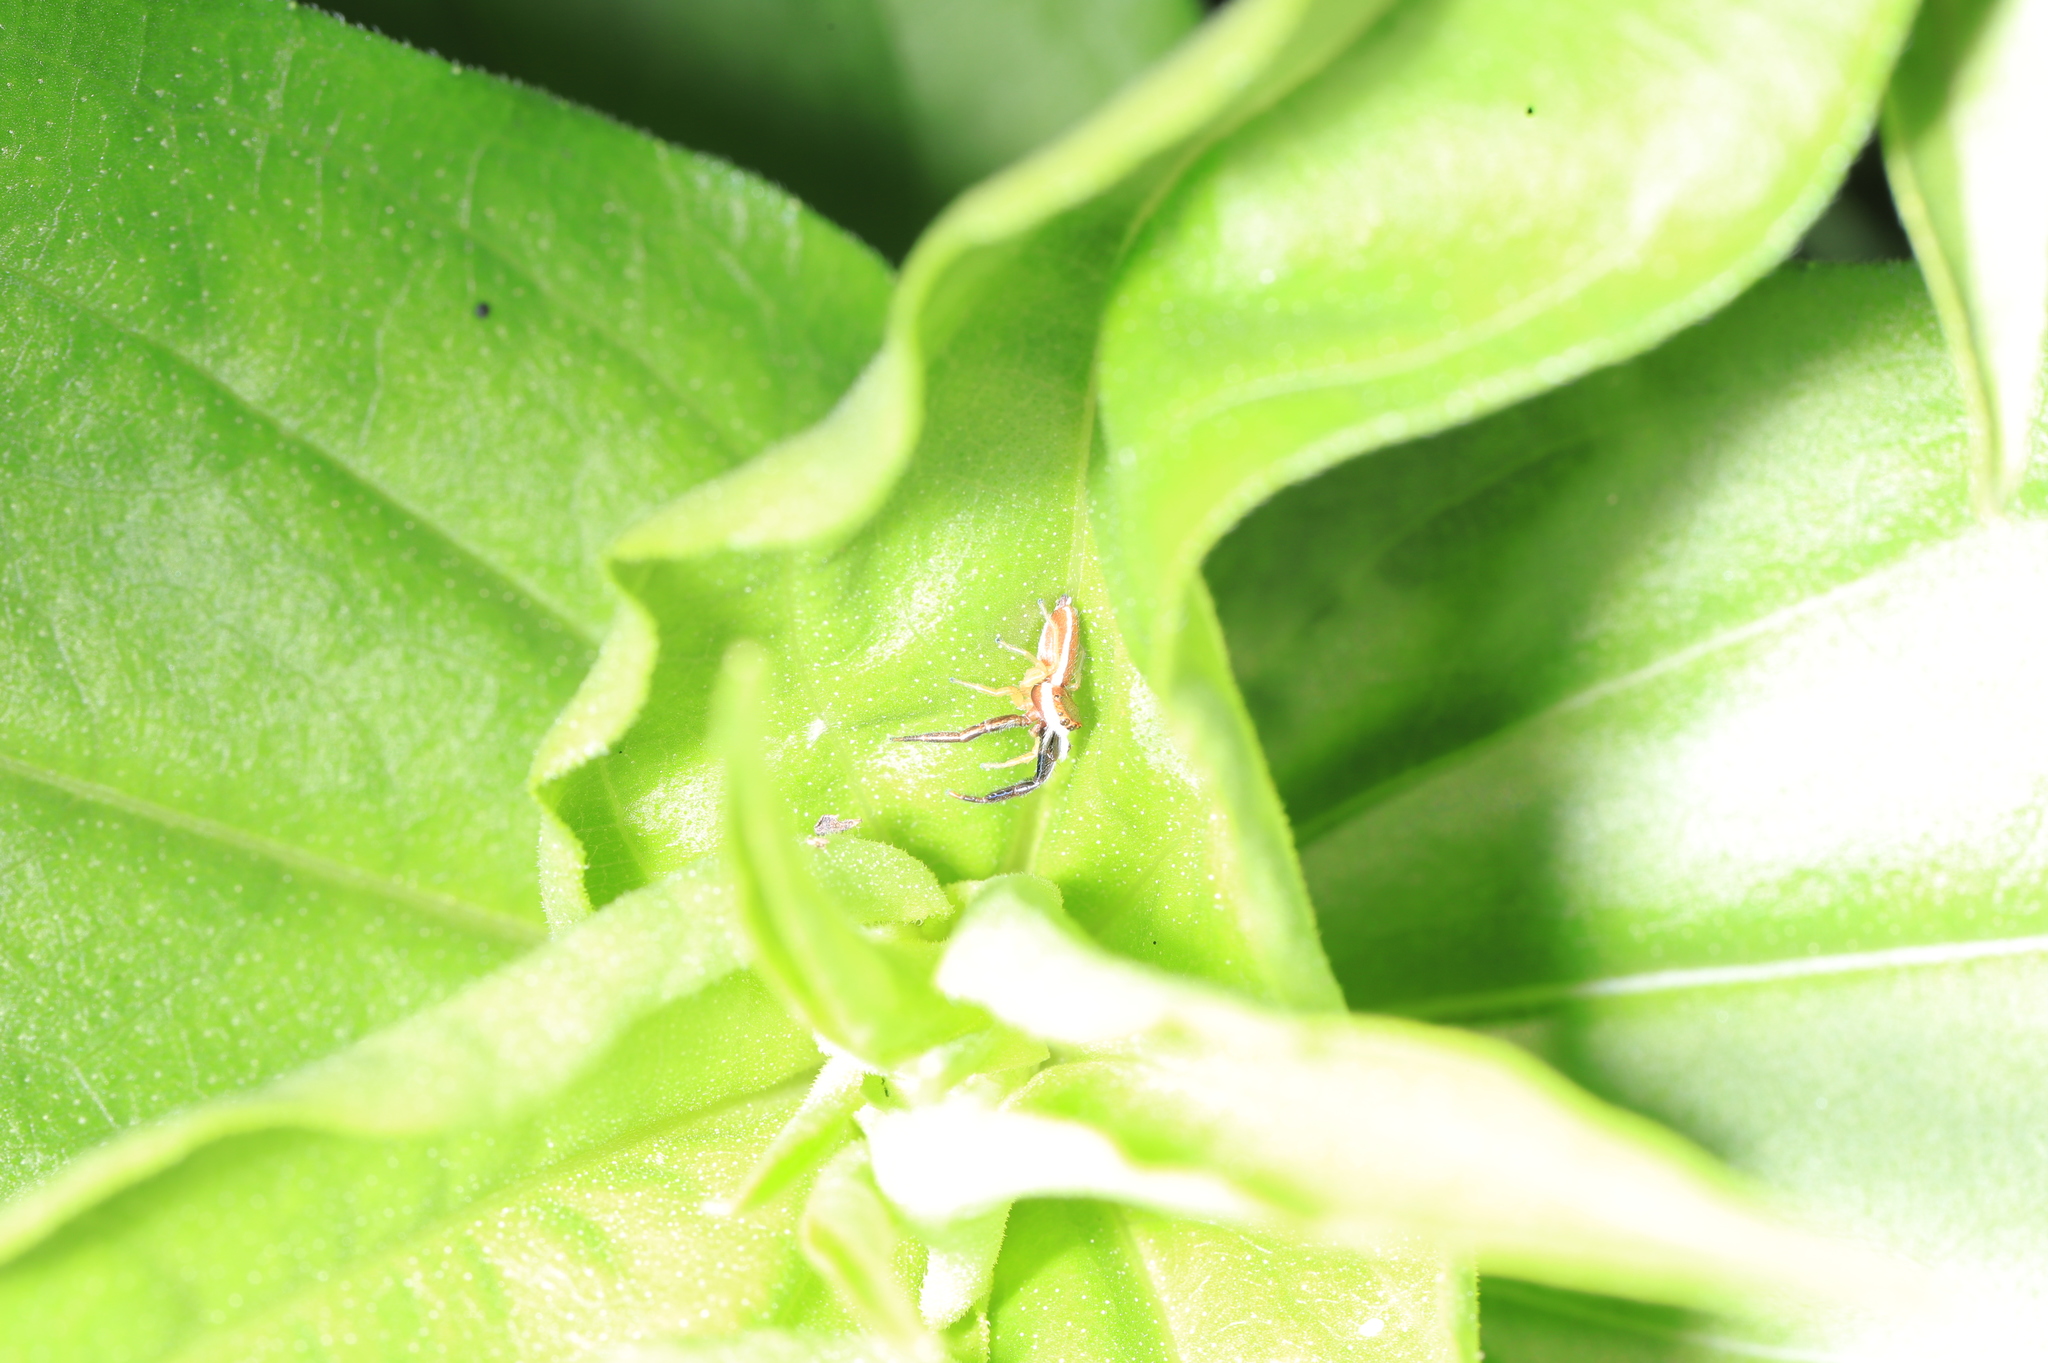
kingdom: Animalia
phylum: Arthropoda
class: Arachnida
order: Araneae
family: Salticidae
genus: Hentzia
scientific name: Hentzia palmarum
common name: Common hentz jumping spider
